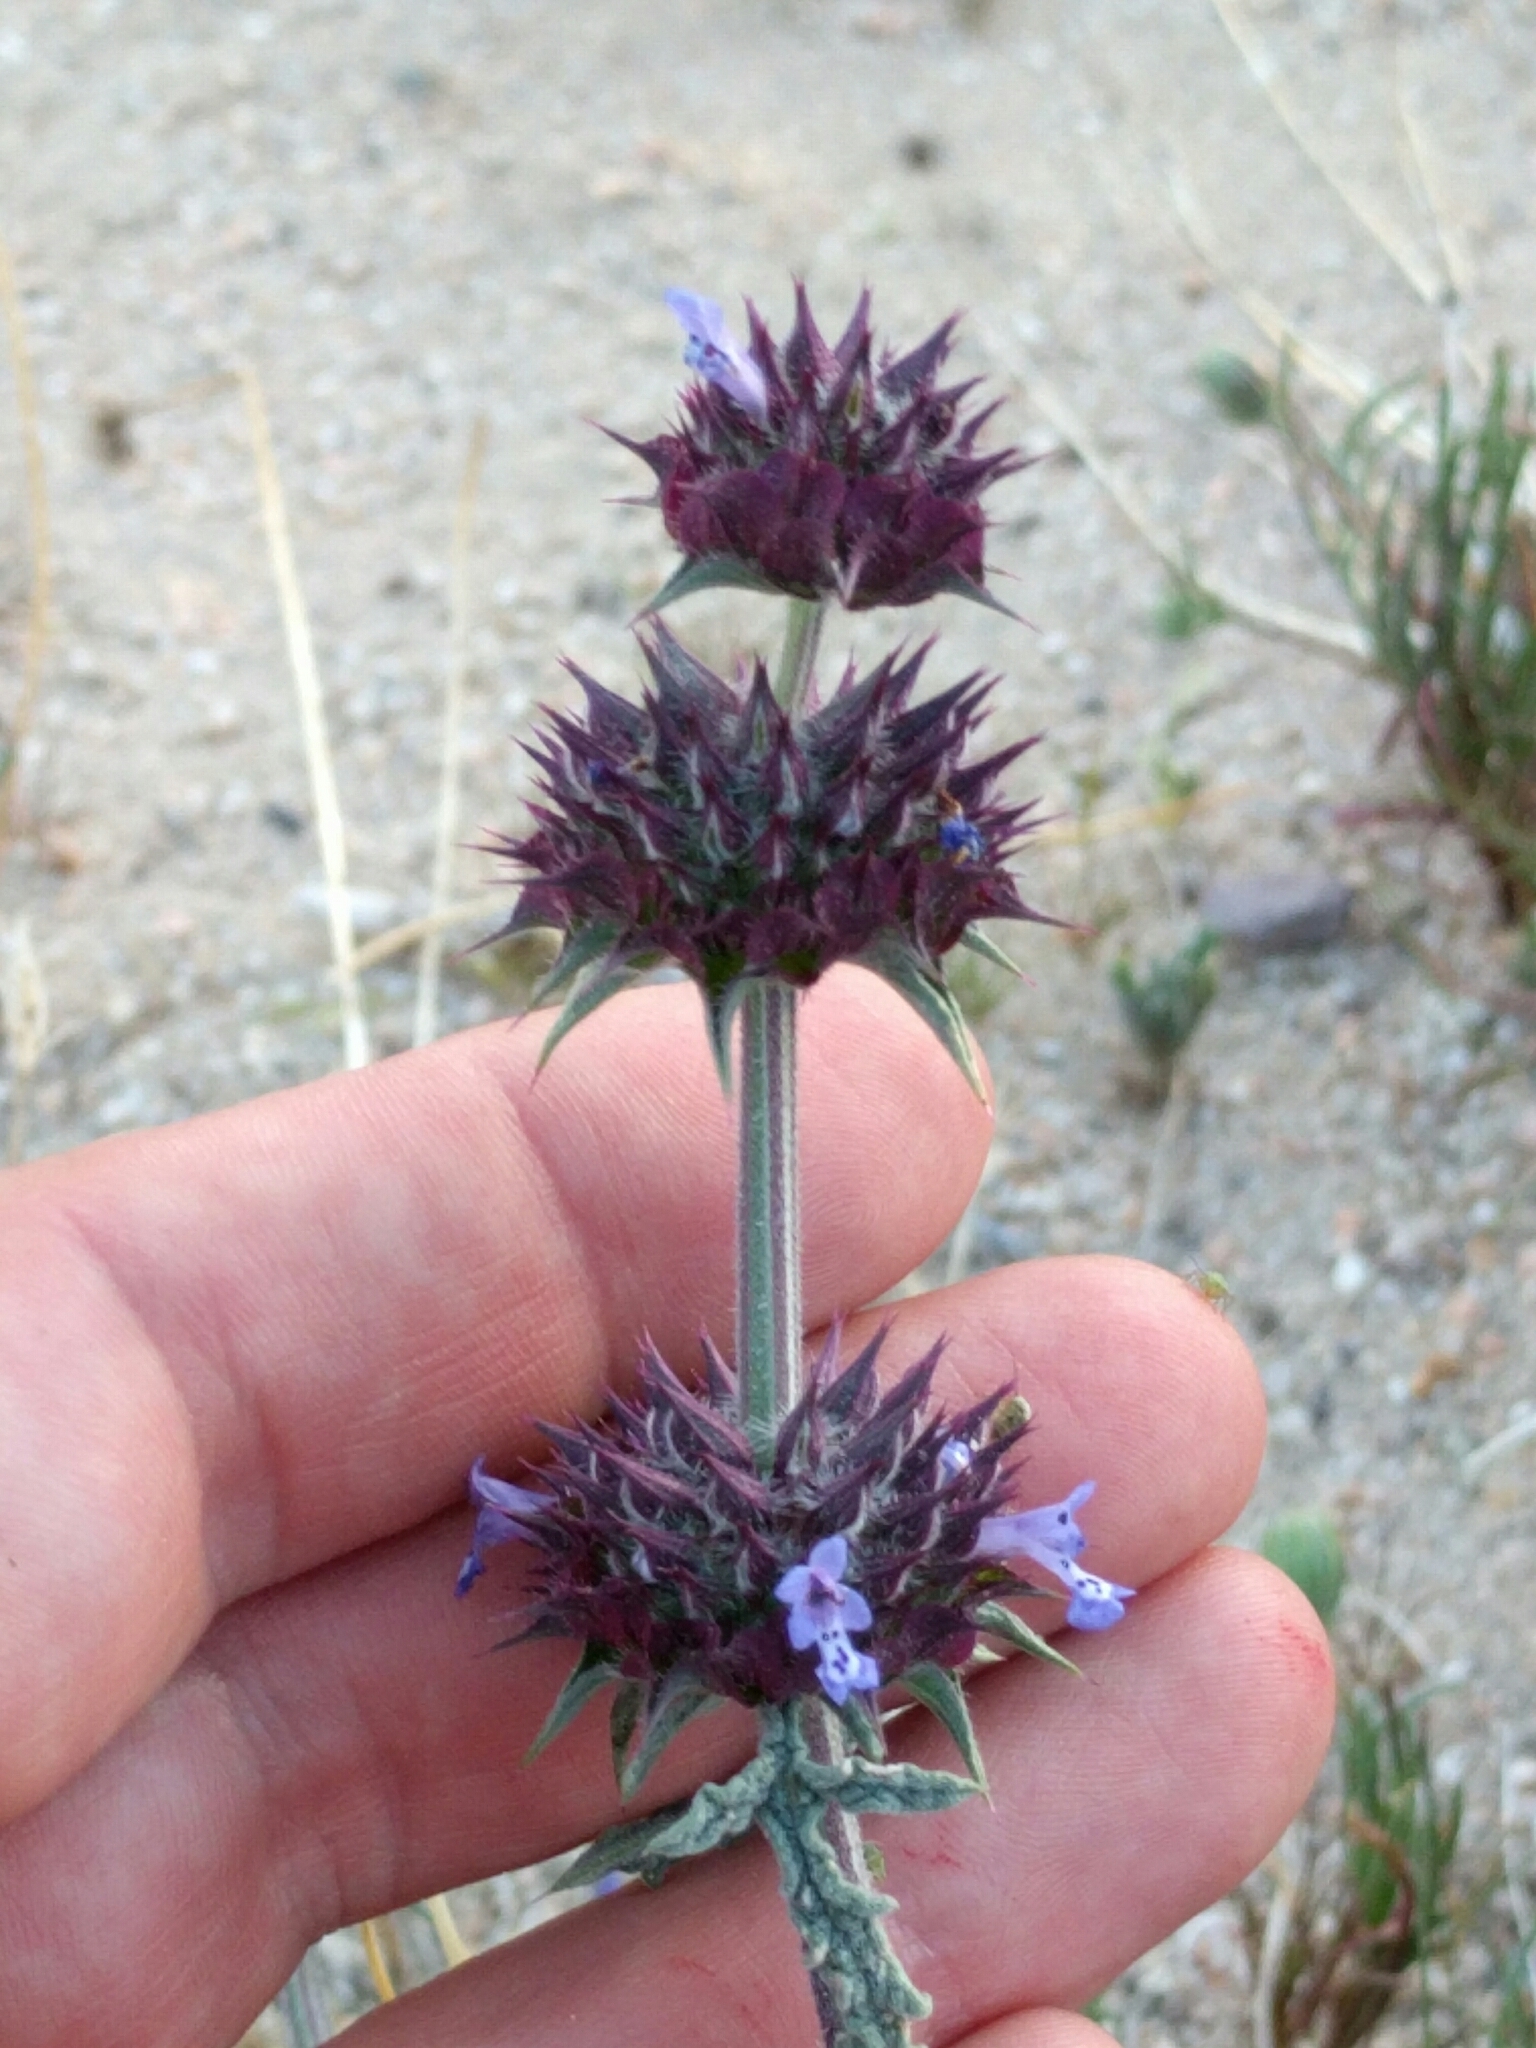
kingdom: Plantae
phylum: Tracheophyta
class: Magnoliopsida
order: Lamiales
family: Lamiaceae
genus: Salvia
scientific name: Salvia columbariae
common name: Chia
